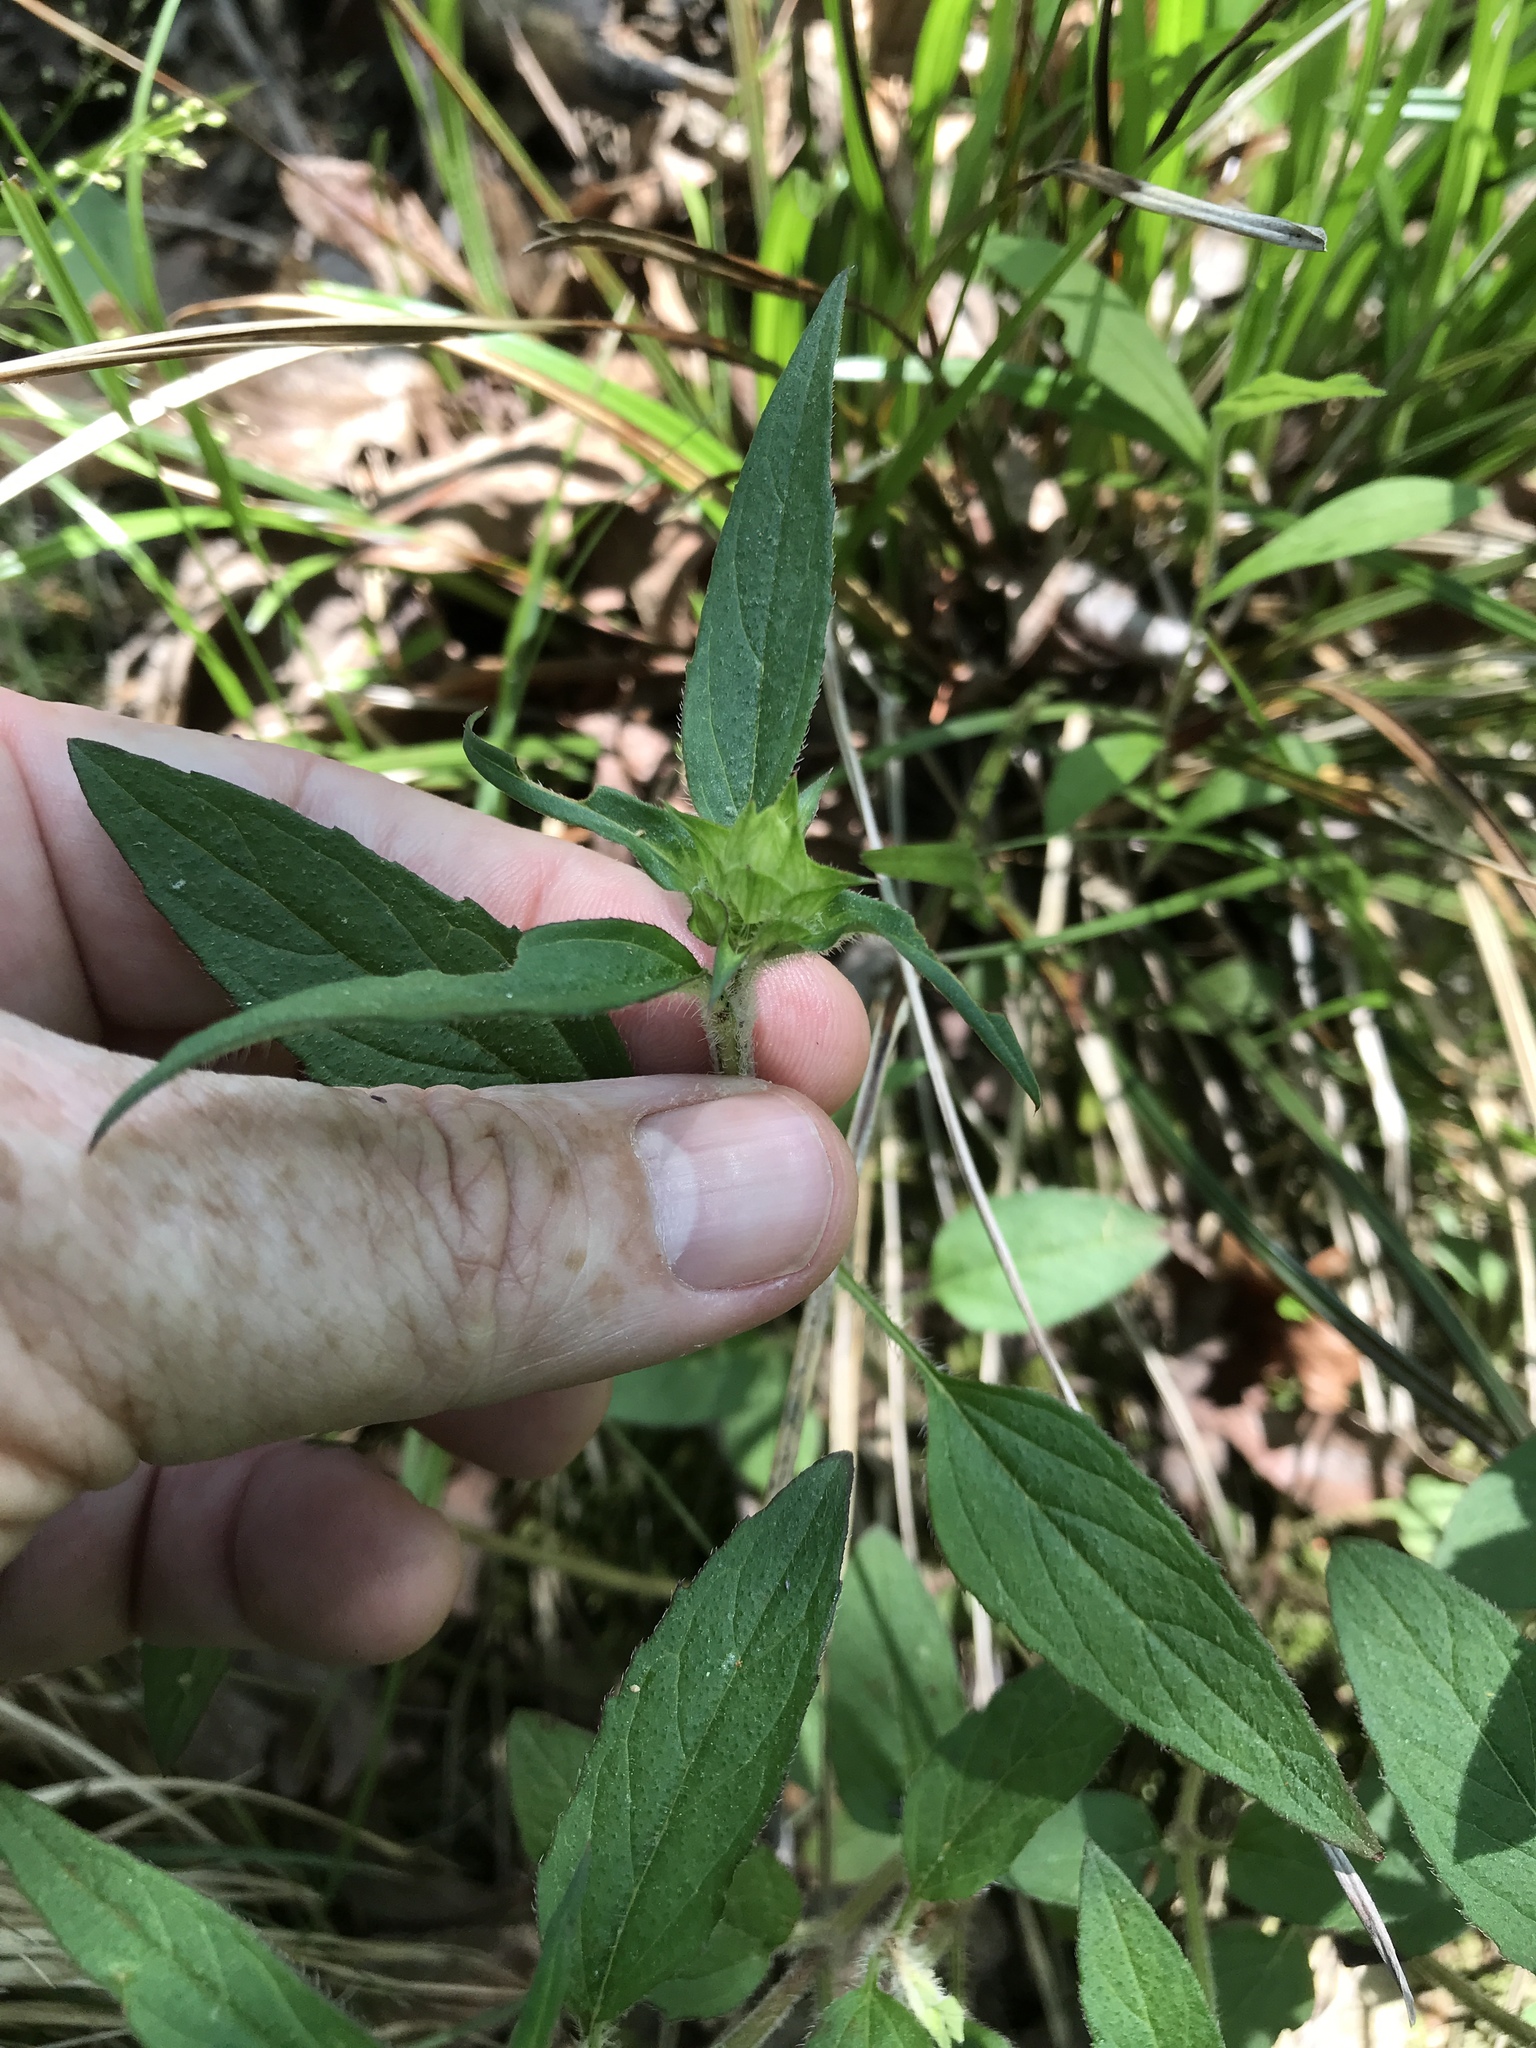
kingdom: Plantae
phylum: Tracheophyta
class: Magnoliopsida
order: Lamiales
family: Lamiaceae
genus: Prunella
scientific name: Prunella vulgaris
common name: Heal-all
